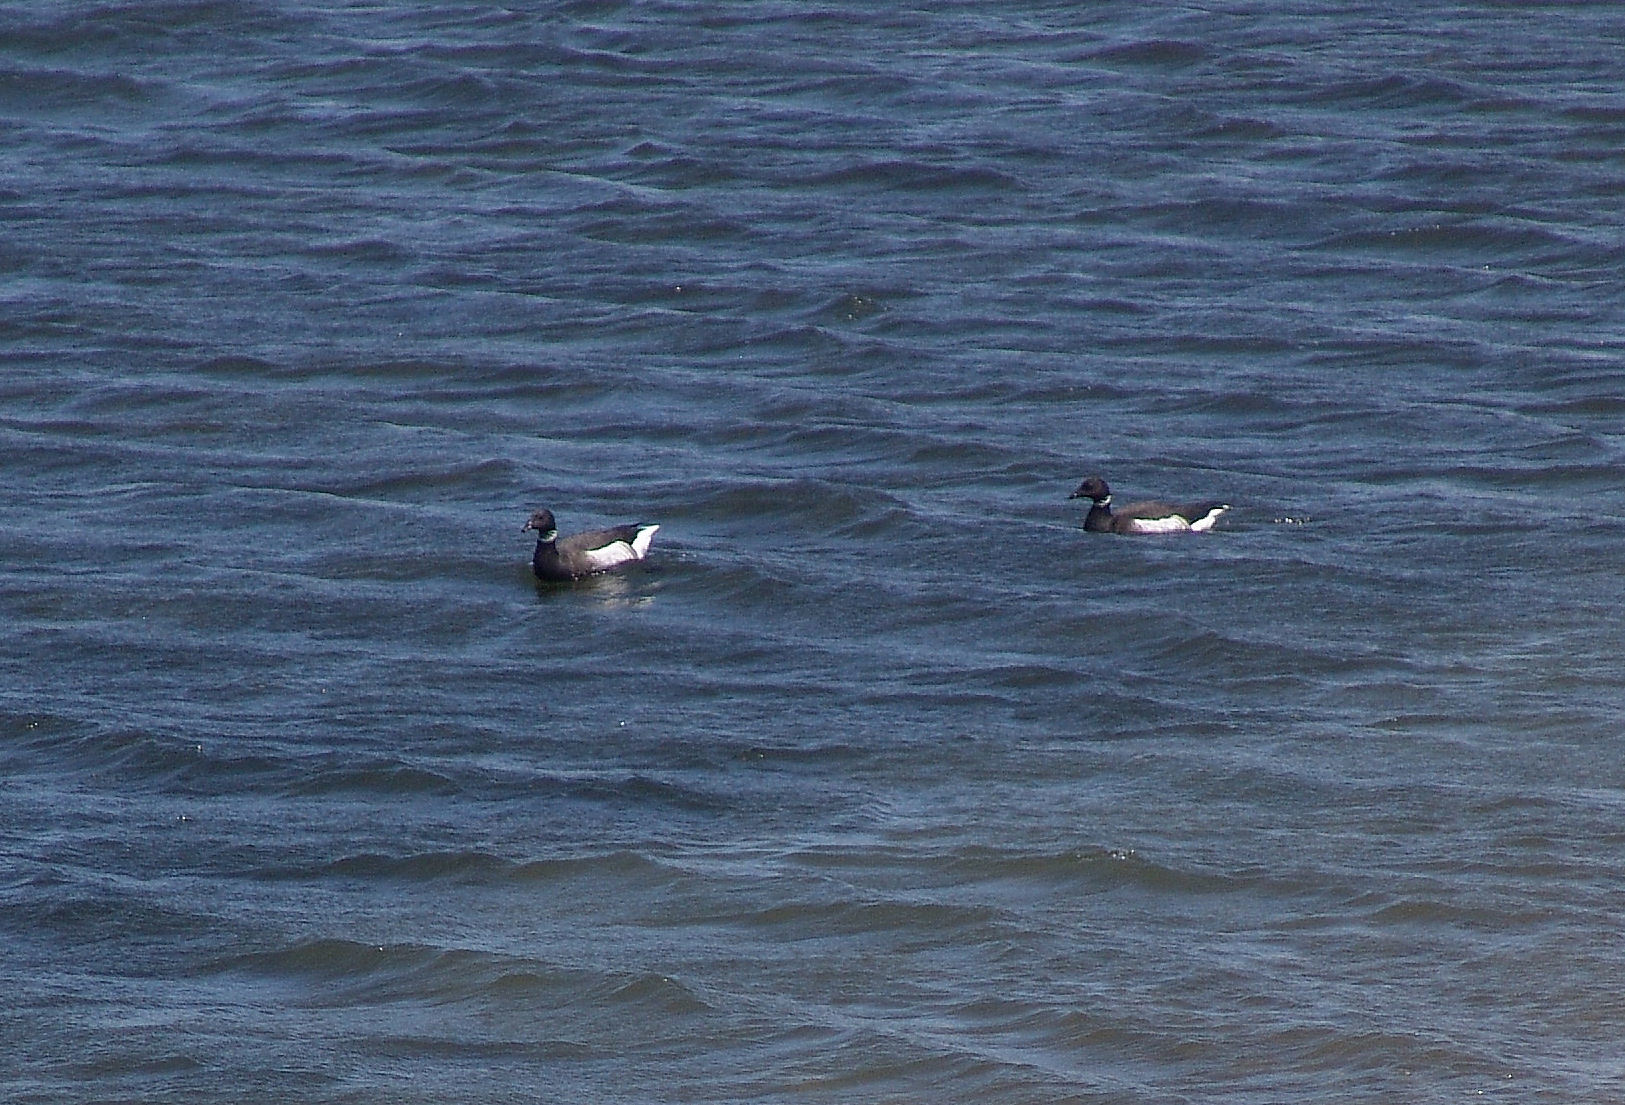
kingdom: Animalia
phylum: Chordata
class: Aves
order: Anseriformes
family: Anatidae
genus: Branta
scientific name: Branta bernicla
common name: Brant goose
